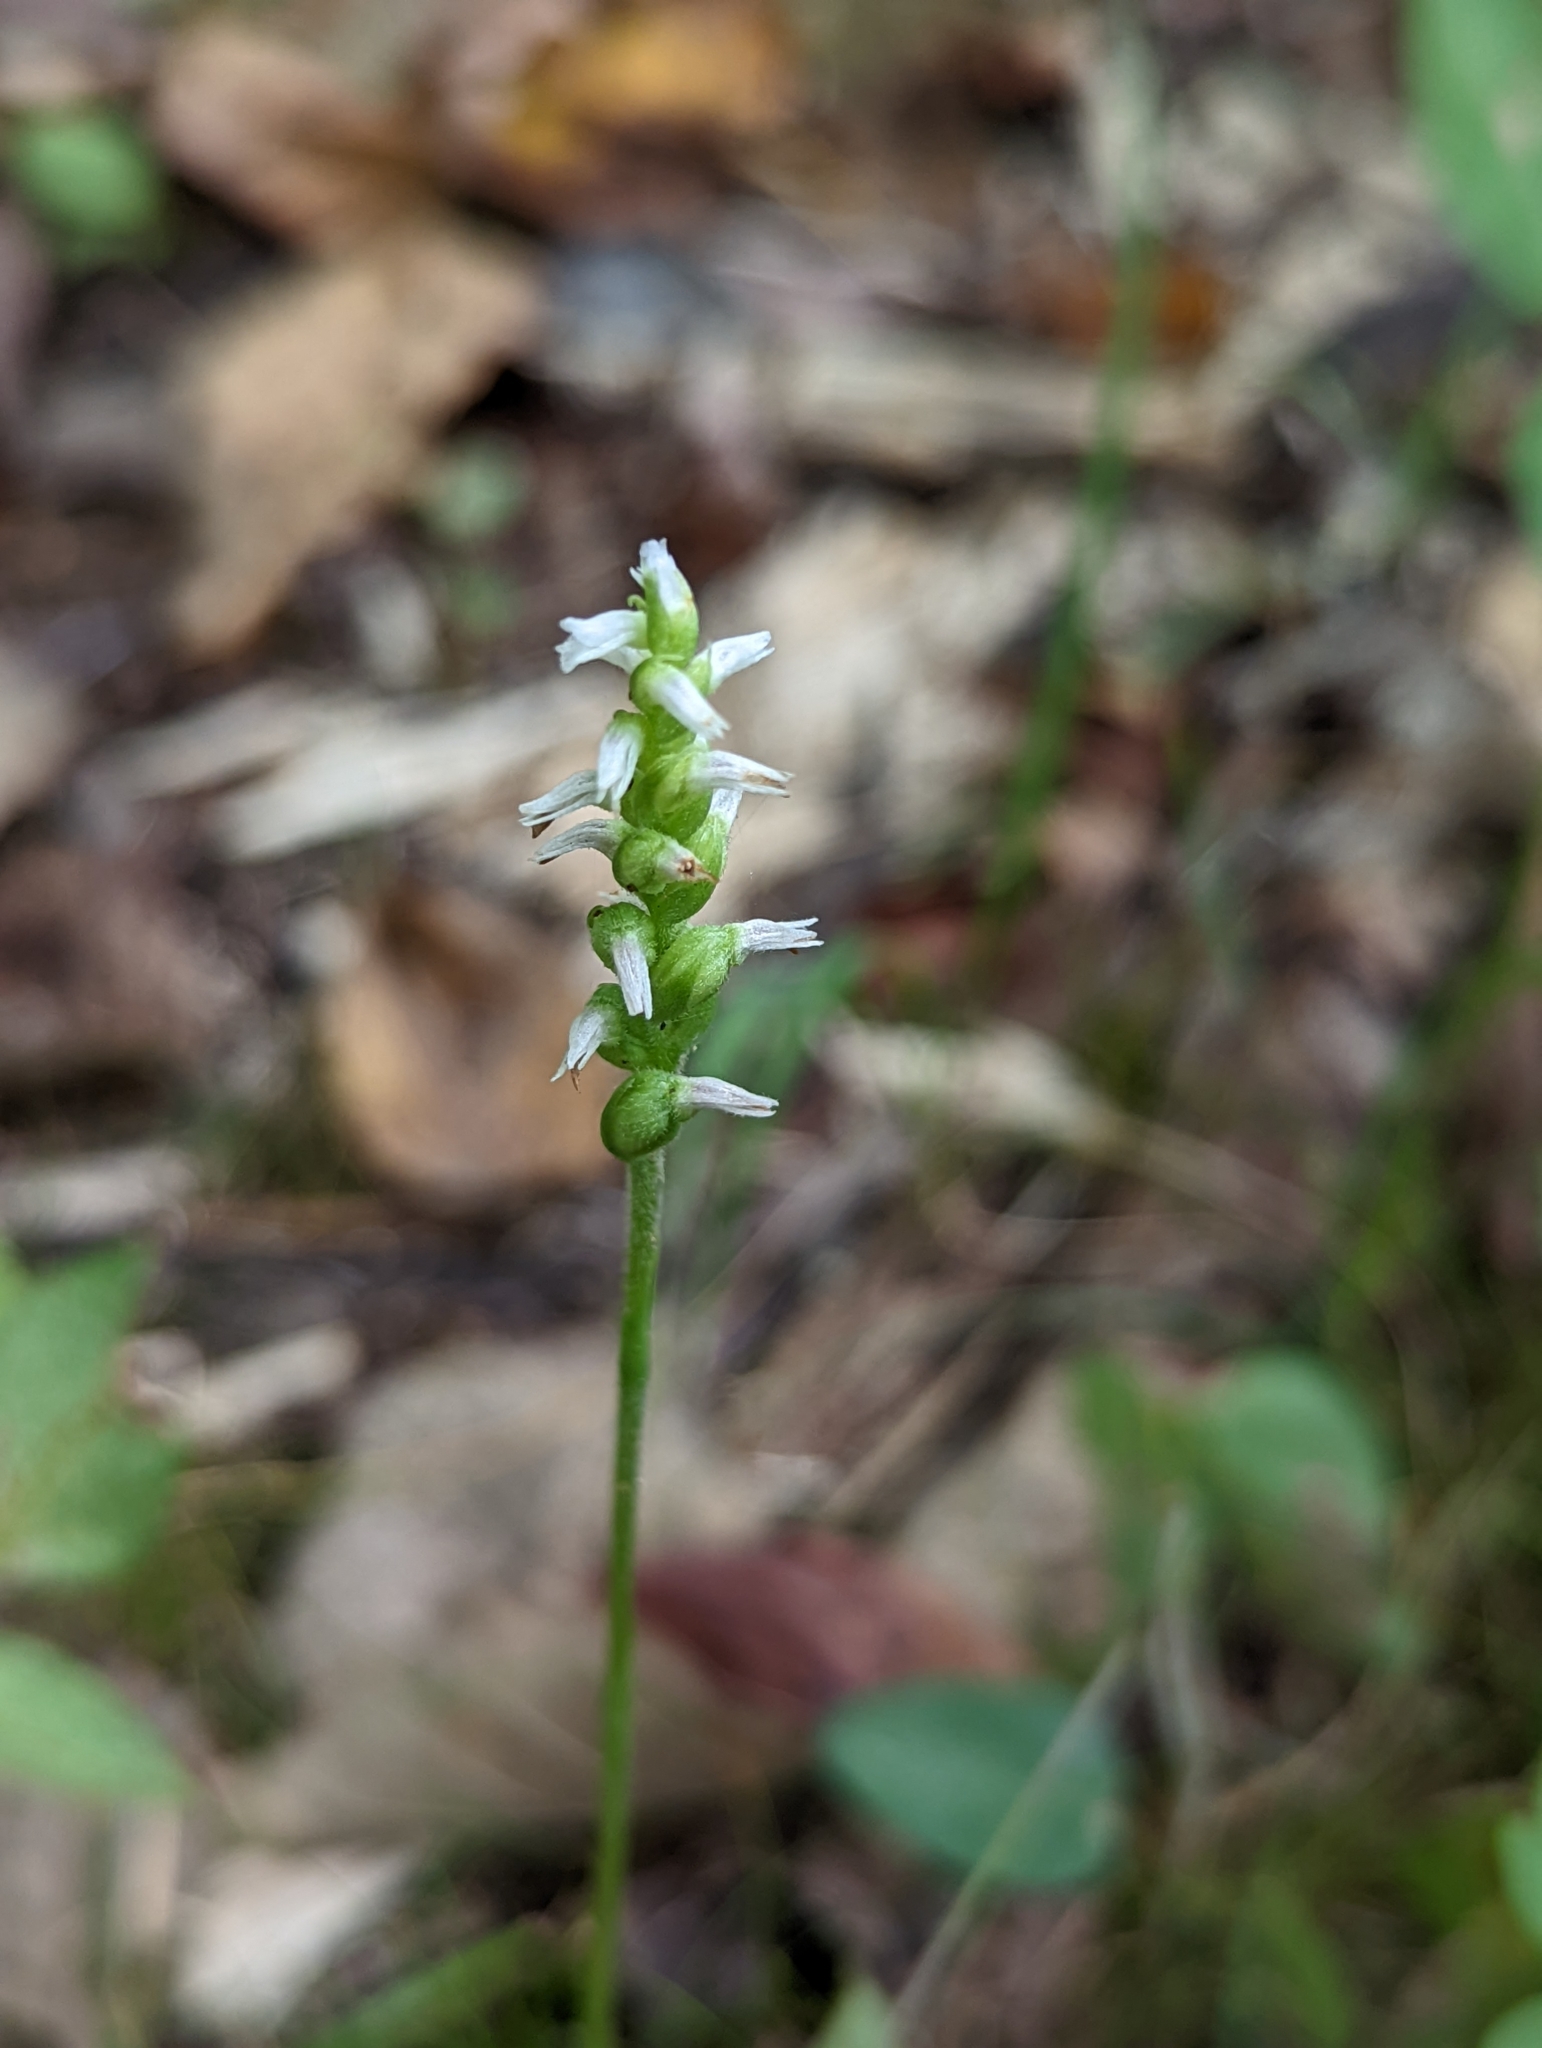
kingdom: Plantae
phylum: Tracheophyta
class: Liliopsida
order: Asparagales
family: Orchidaceae
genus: Spiranthes
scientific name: Spiranthes ovalis
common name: October ladies'-tresses
